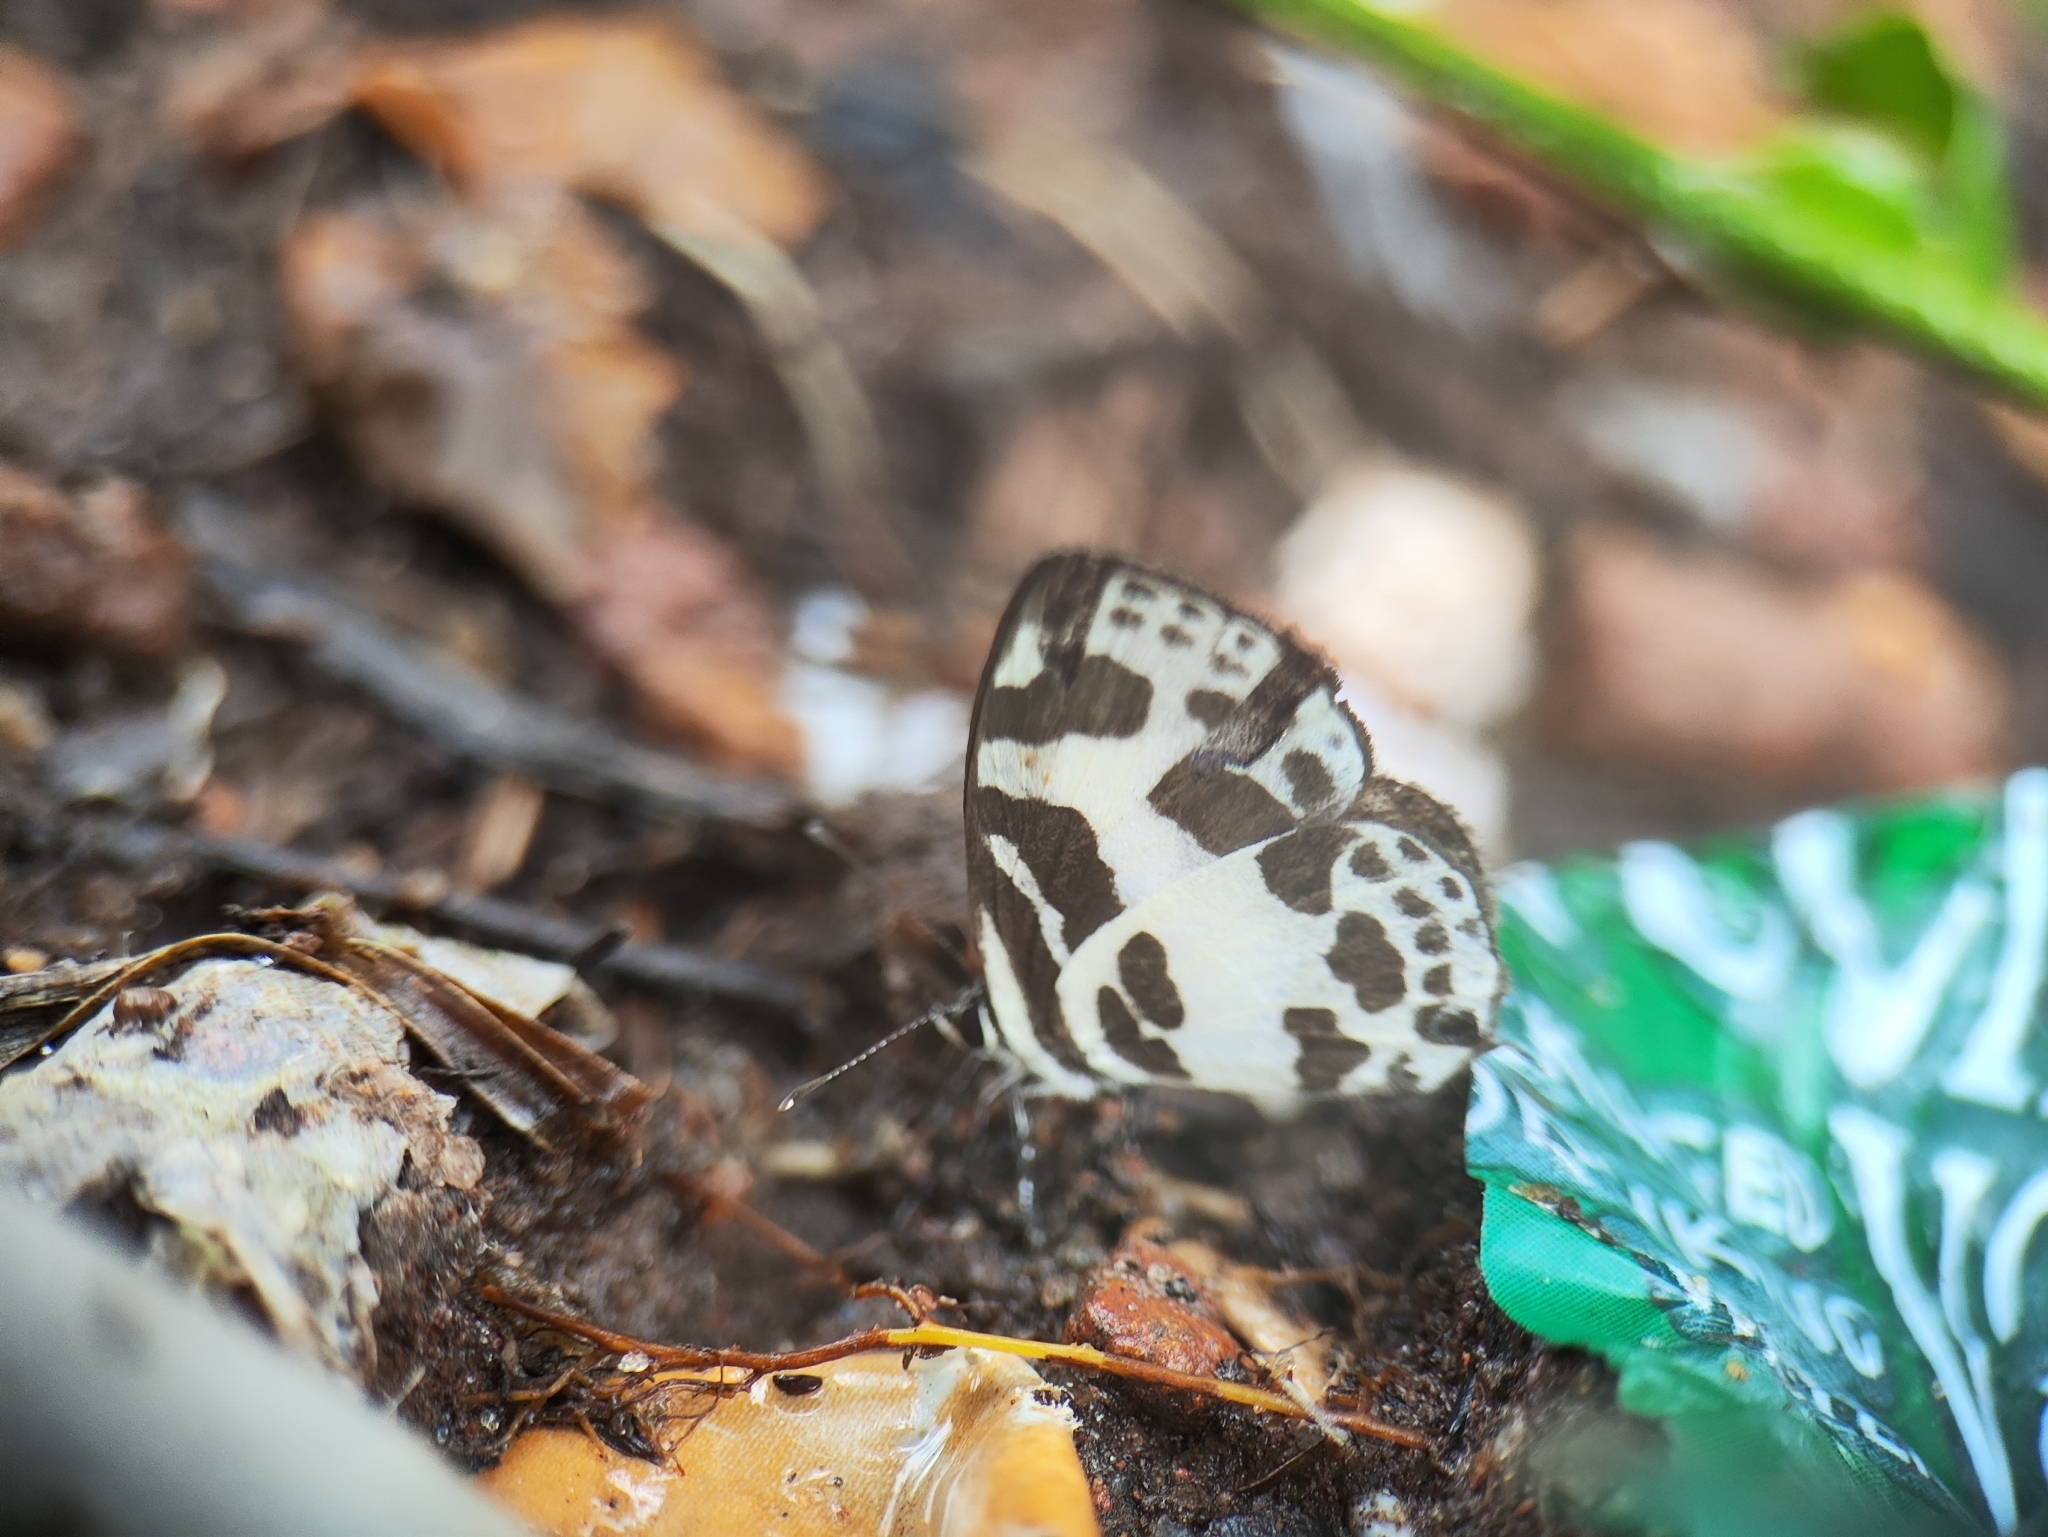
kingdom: Animalia
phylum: Arthropoda
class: Insecta
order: Lepidoptera
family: Lycaenidae
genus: Discolampa
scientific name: Discolampa ethion
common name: Banded blue pierrot
